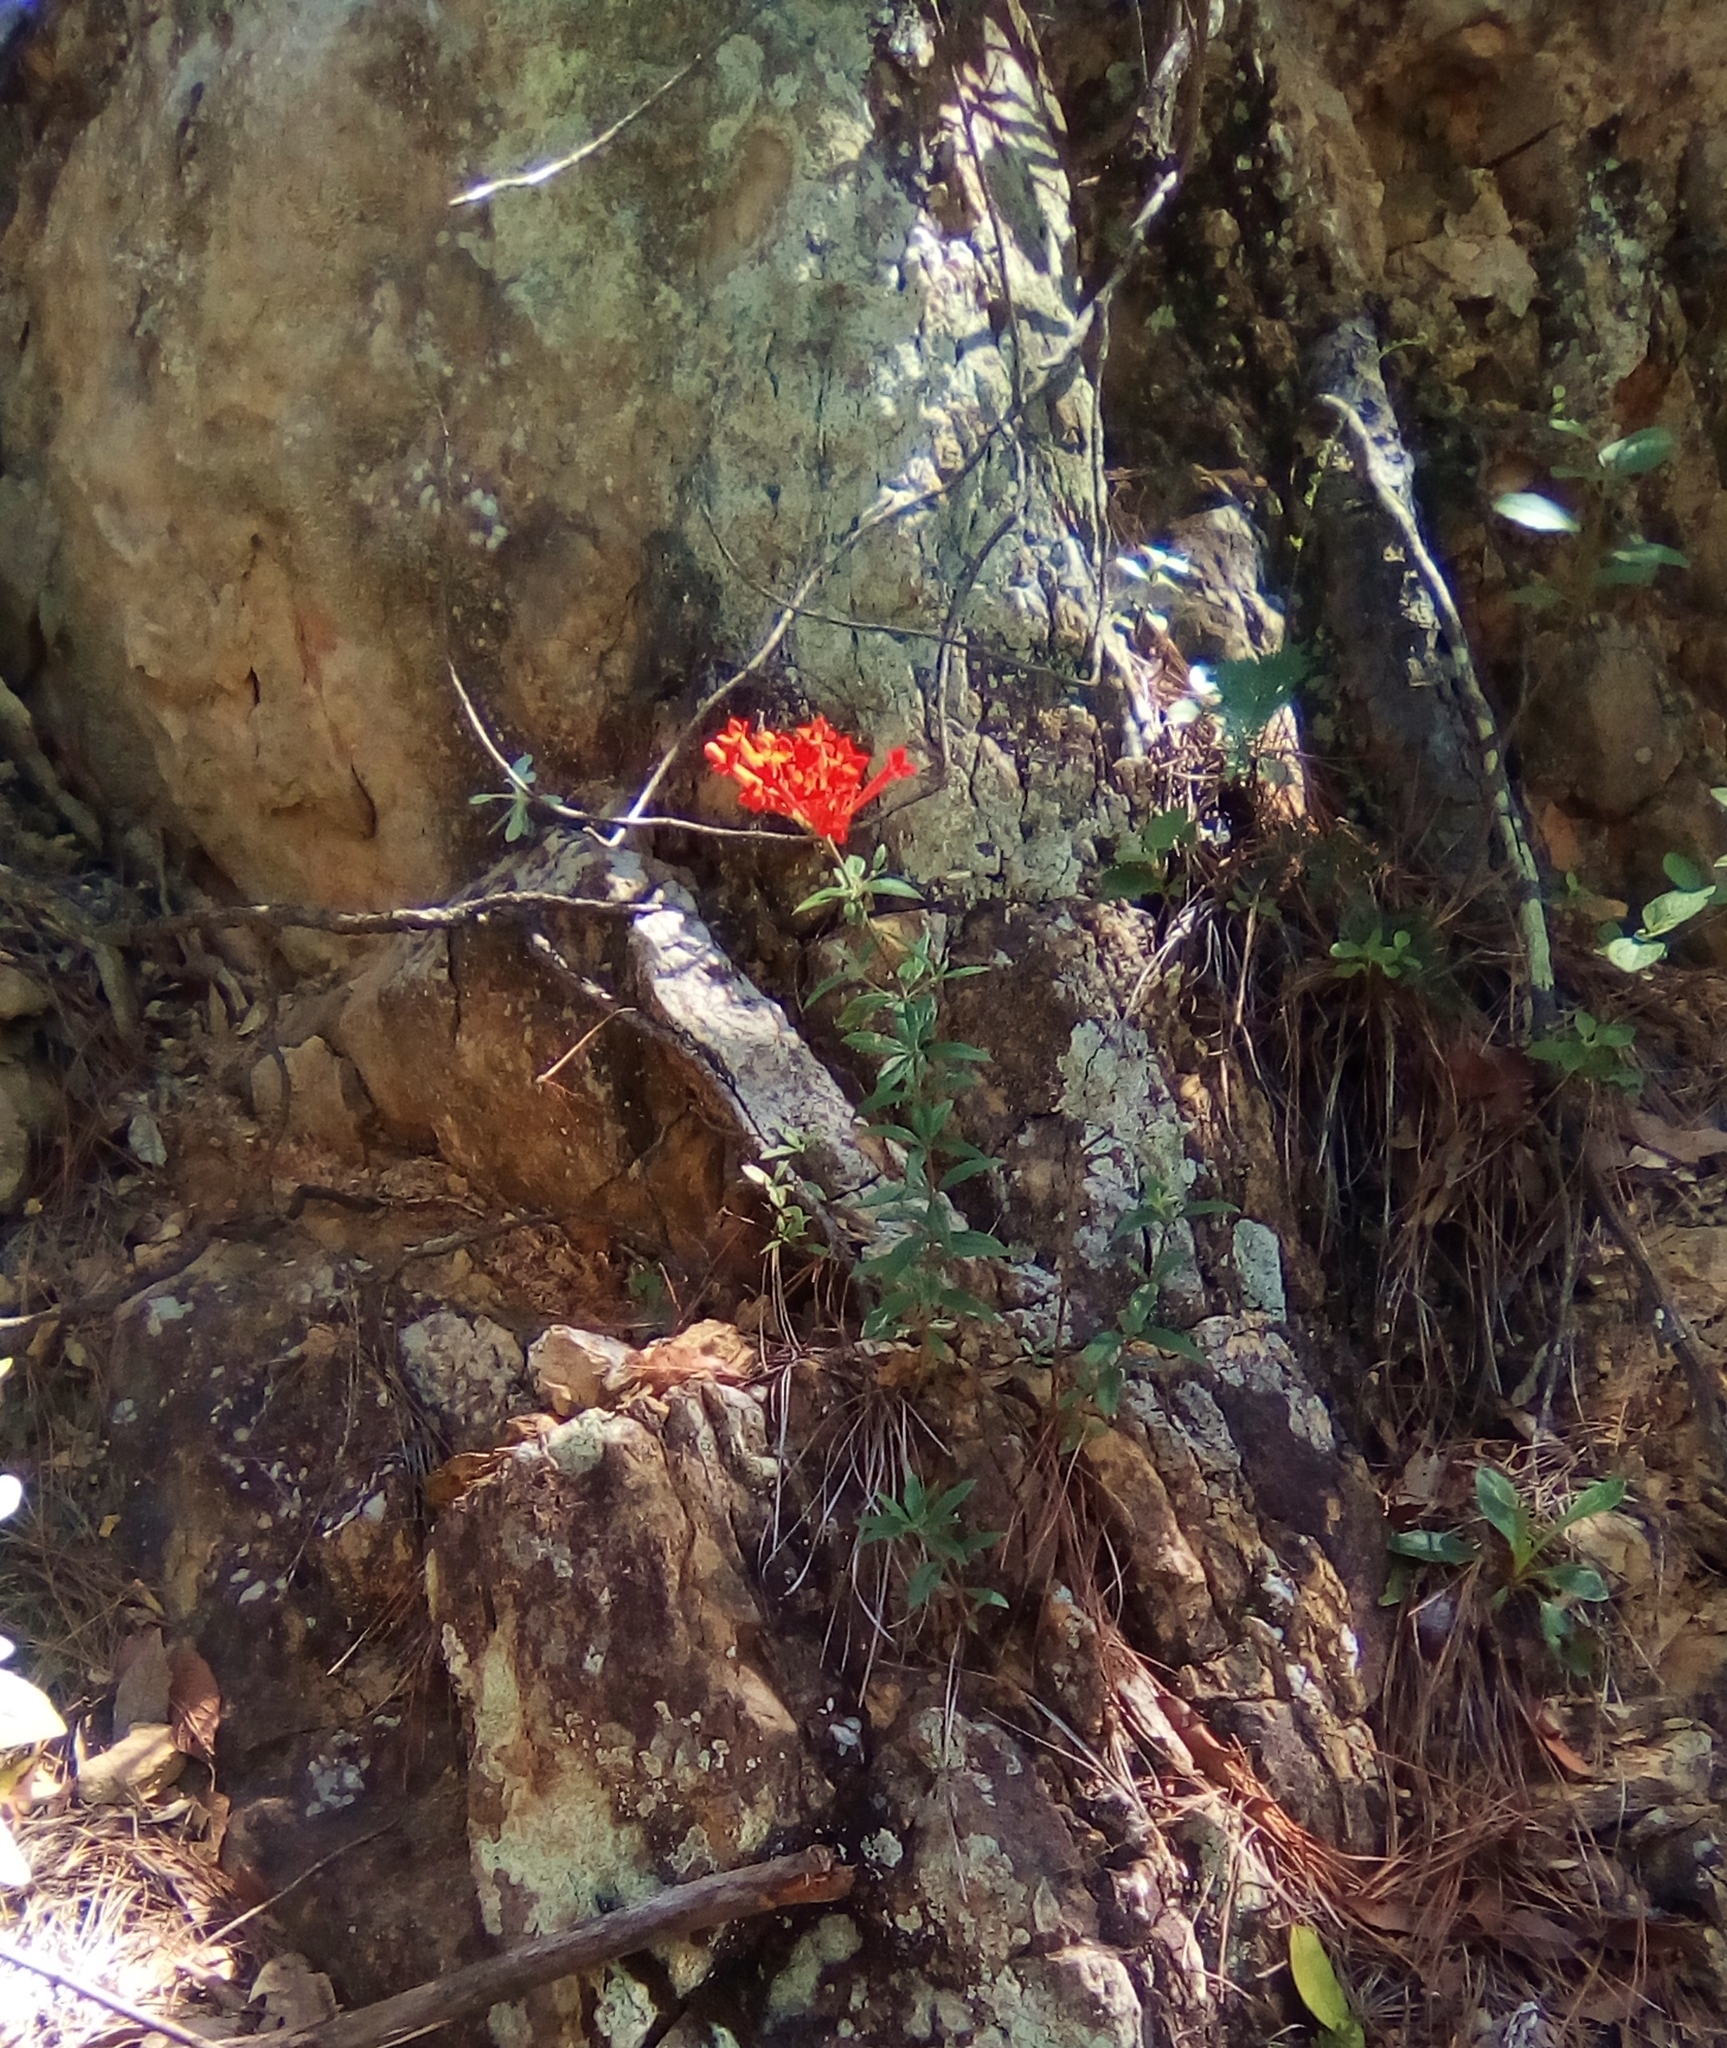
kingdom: Plantae
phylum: Tracheophyta
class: Magnoliopsida
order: Gentianales
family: Rubiaceae
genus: Bouvardia
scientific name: Bouvardia ternifolia
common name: Scarlet bouvardia
